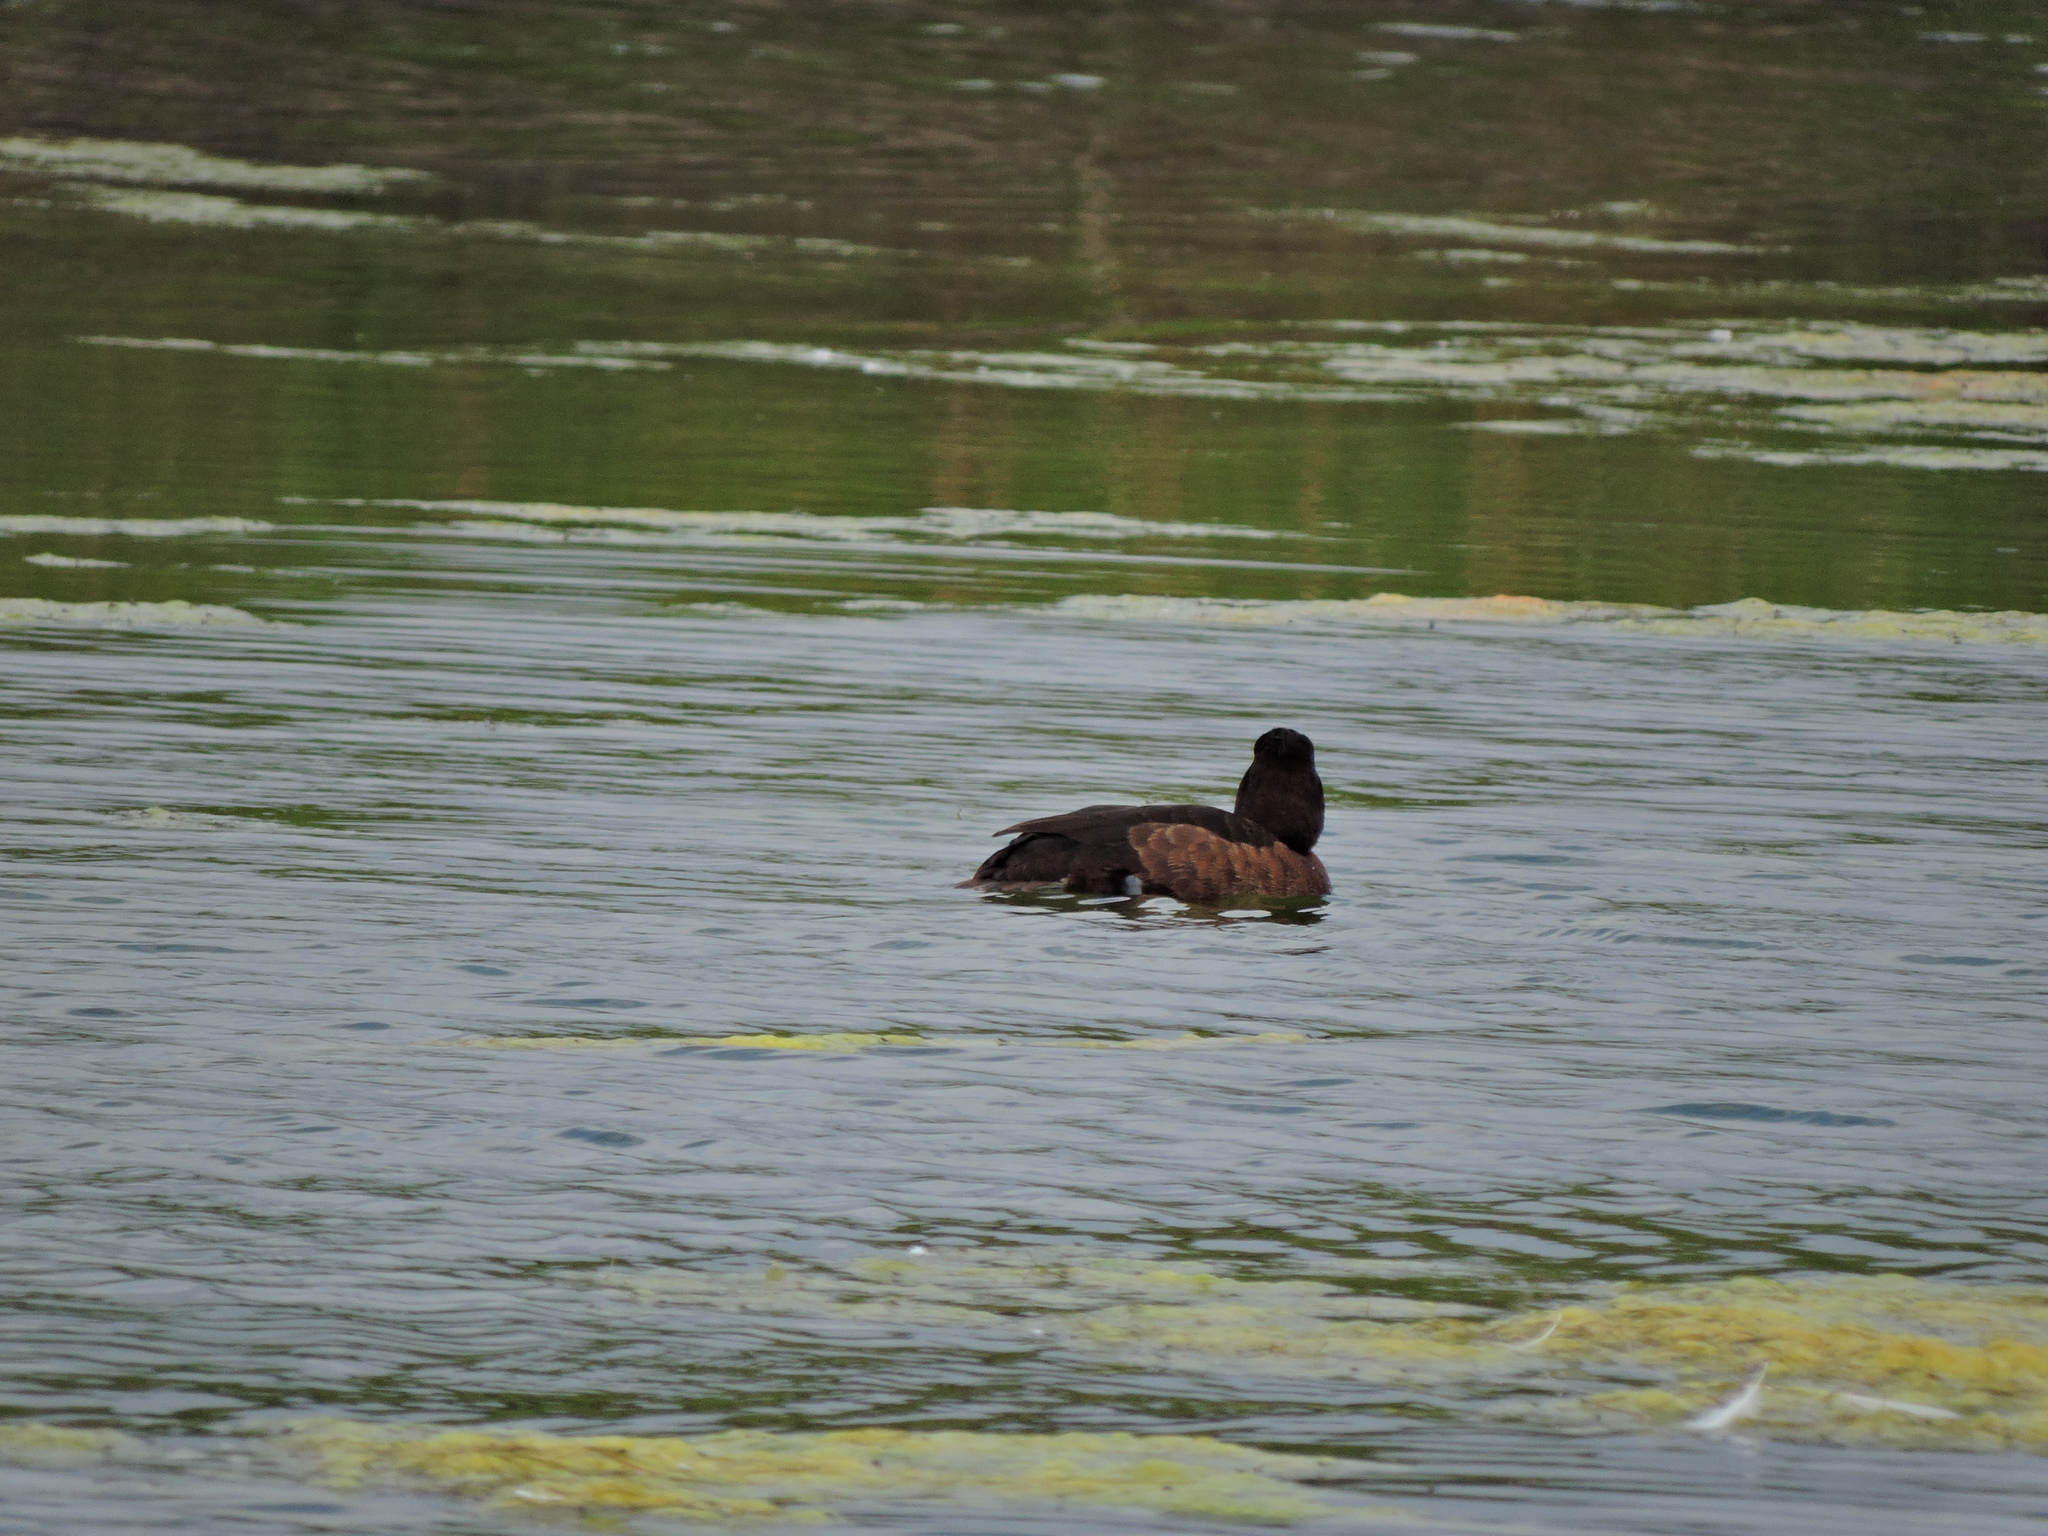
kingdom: Animalia
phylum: Chordata
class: Aves
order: Anseriformes
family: Anatidae
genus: Aythya
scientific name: Aythya fuligula
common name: Tufted duck
